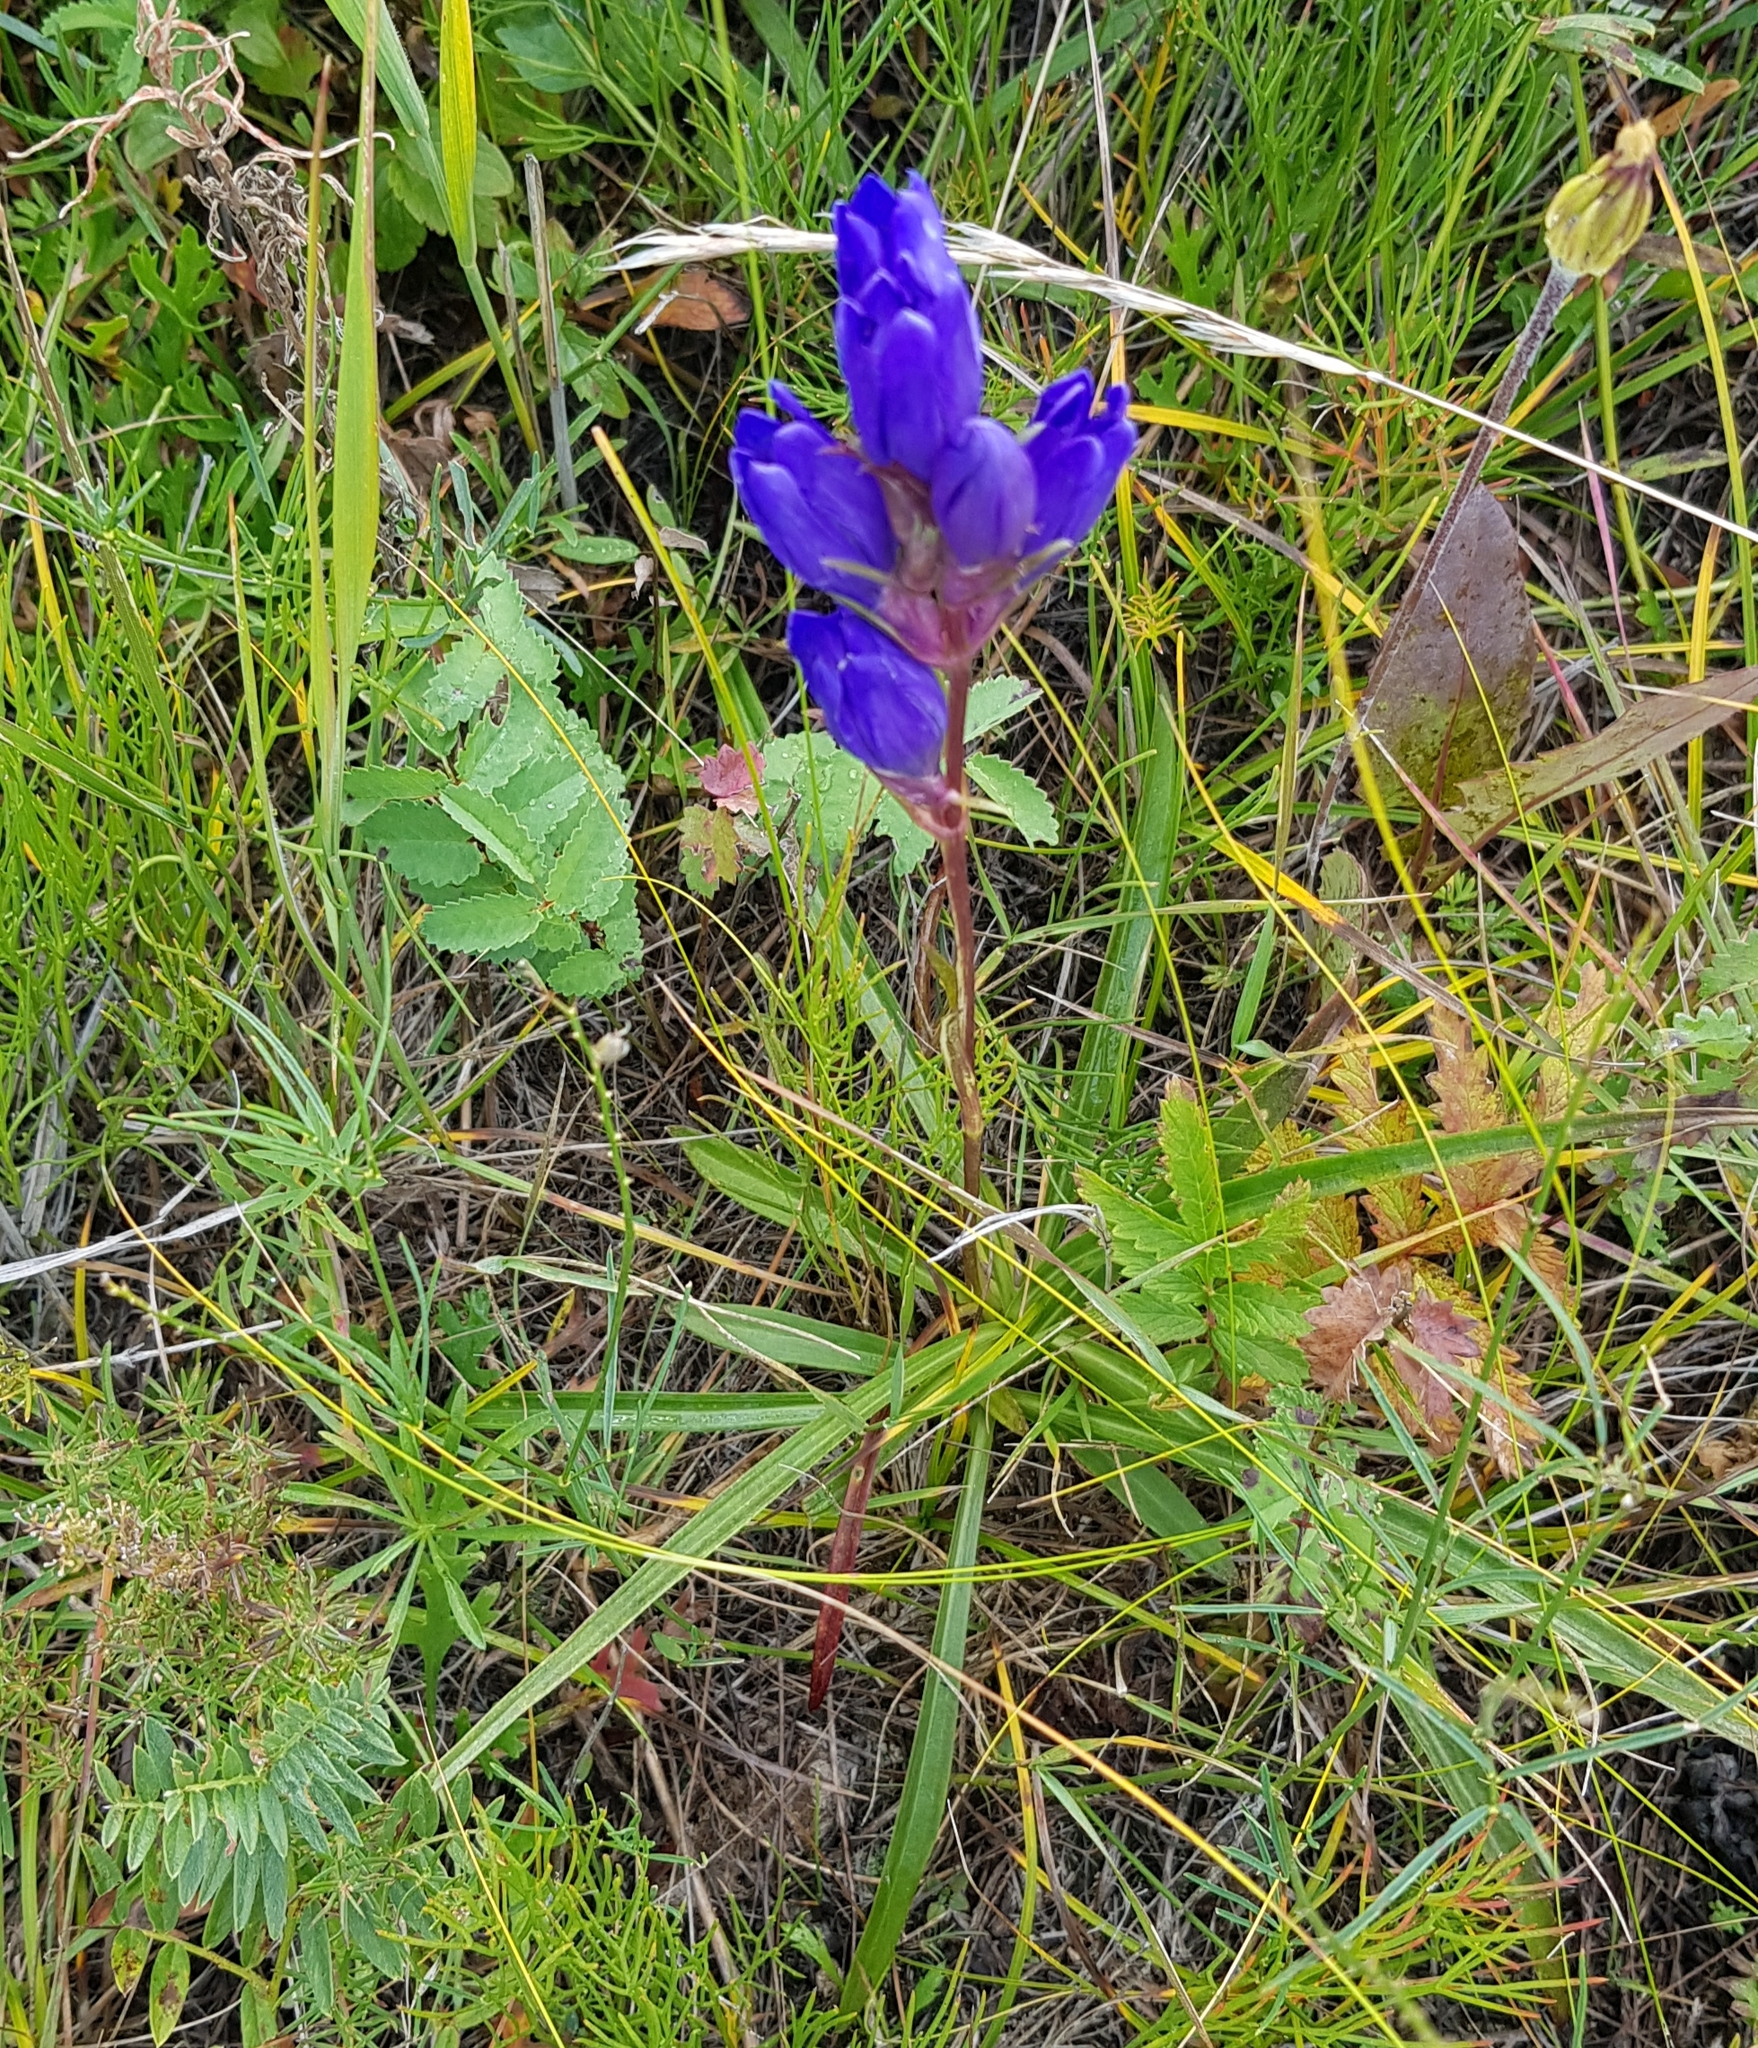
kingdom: Plantae
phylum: Tracheophyta
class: Magnoliopsida
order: Gentianales
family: Gentianaceae
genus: Gentiana
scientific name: Gentiana decumbens
